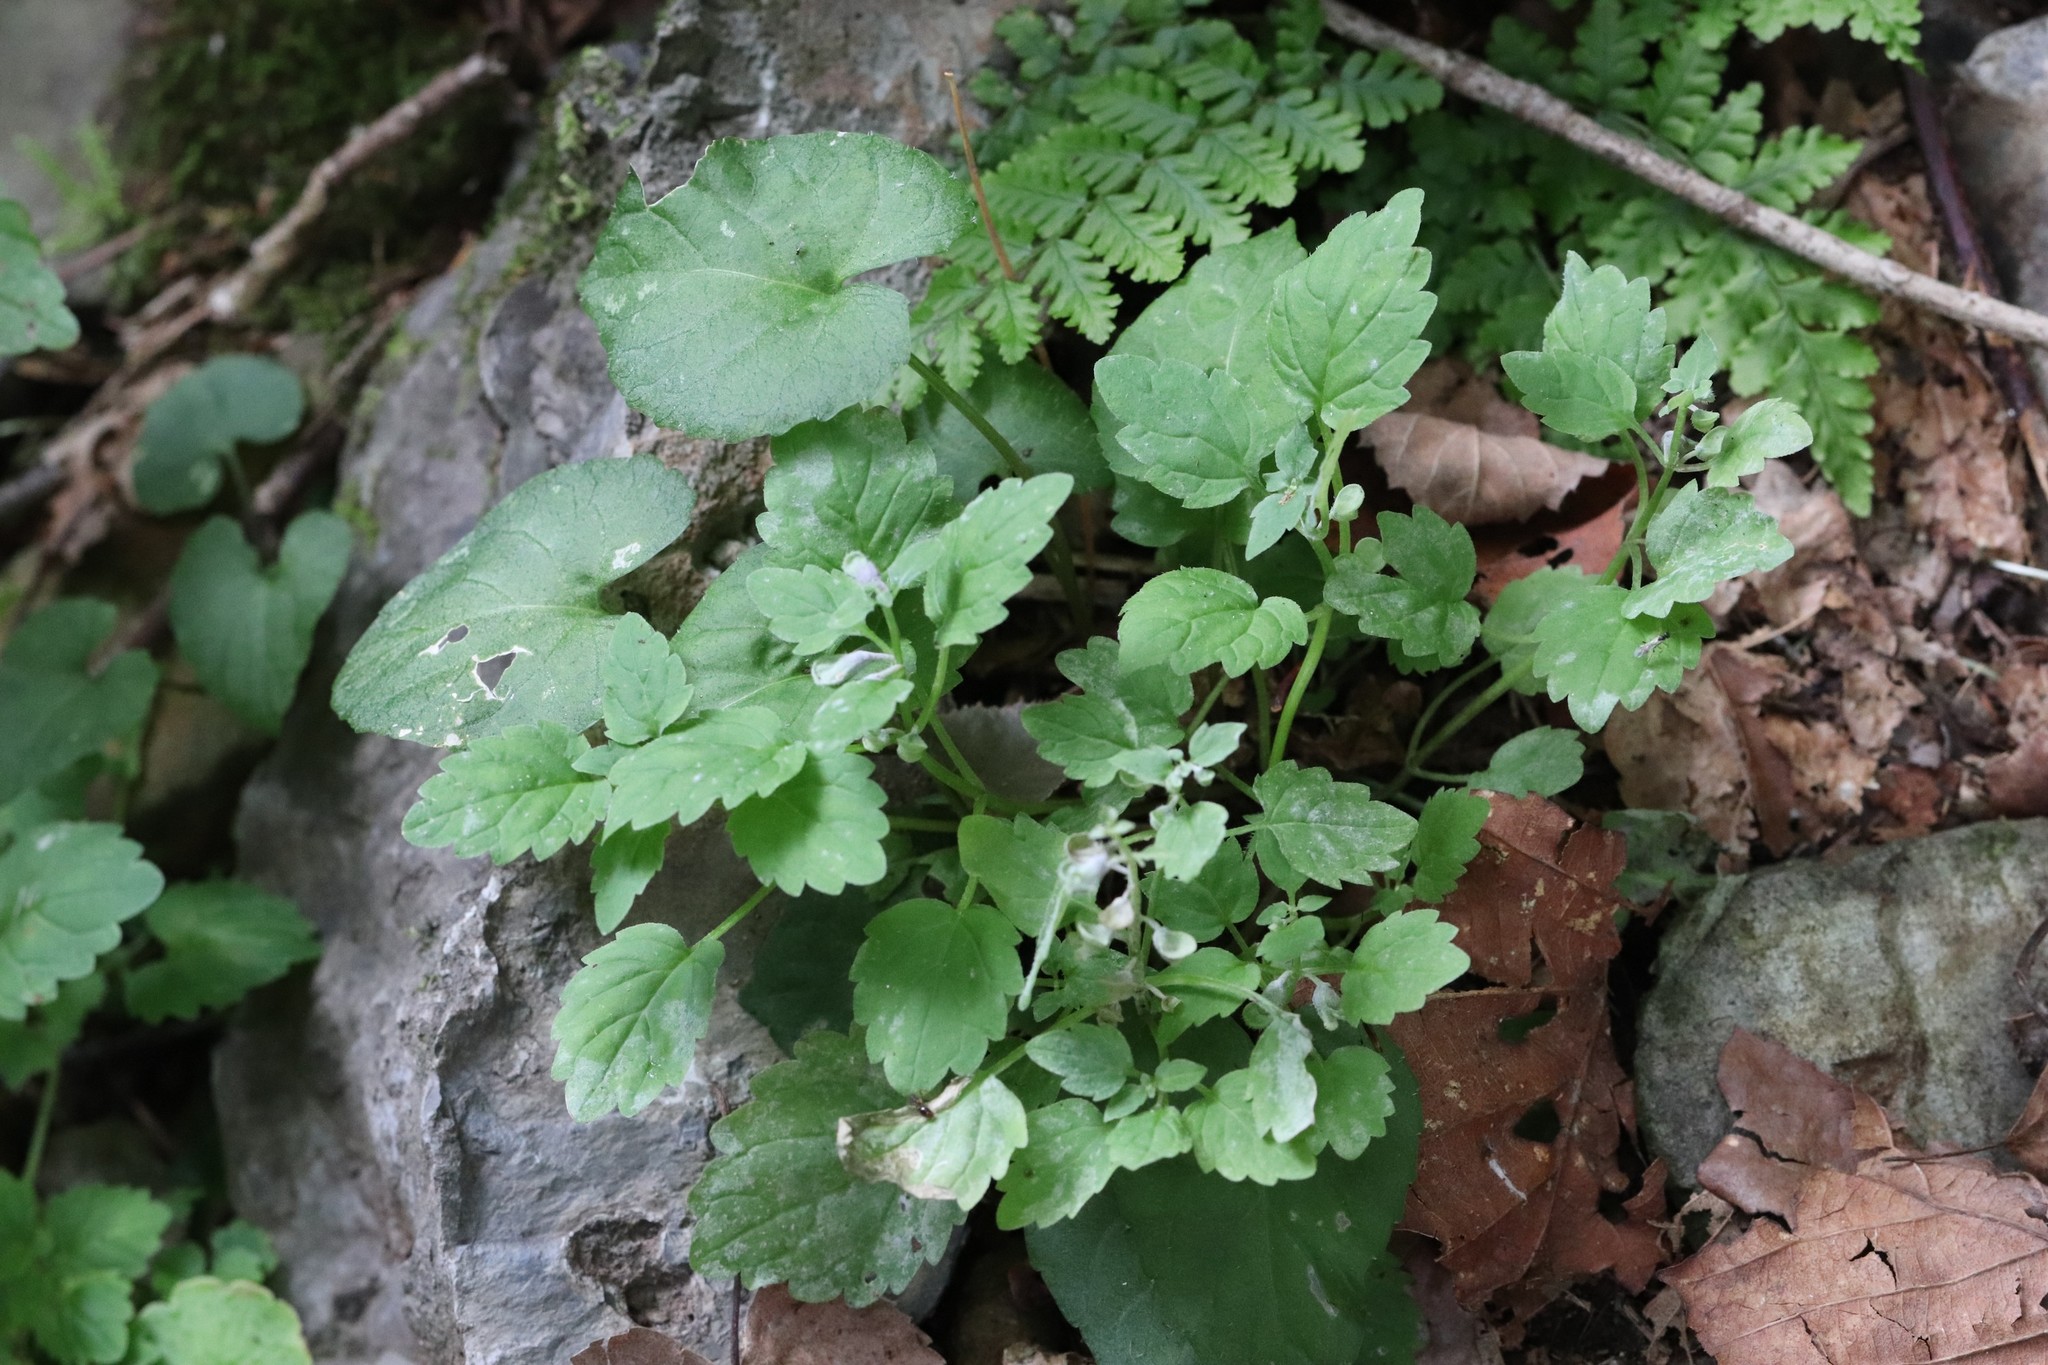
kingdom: Plantae
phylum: Tracheophyta
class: Magnoliopsida
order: Lamiales
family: Lamiaceae
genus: Scutellaria
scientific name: Scutellaria pekinensis
